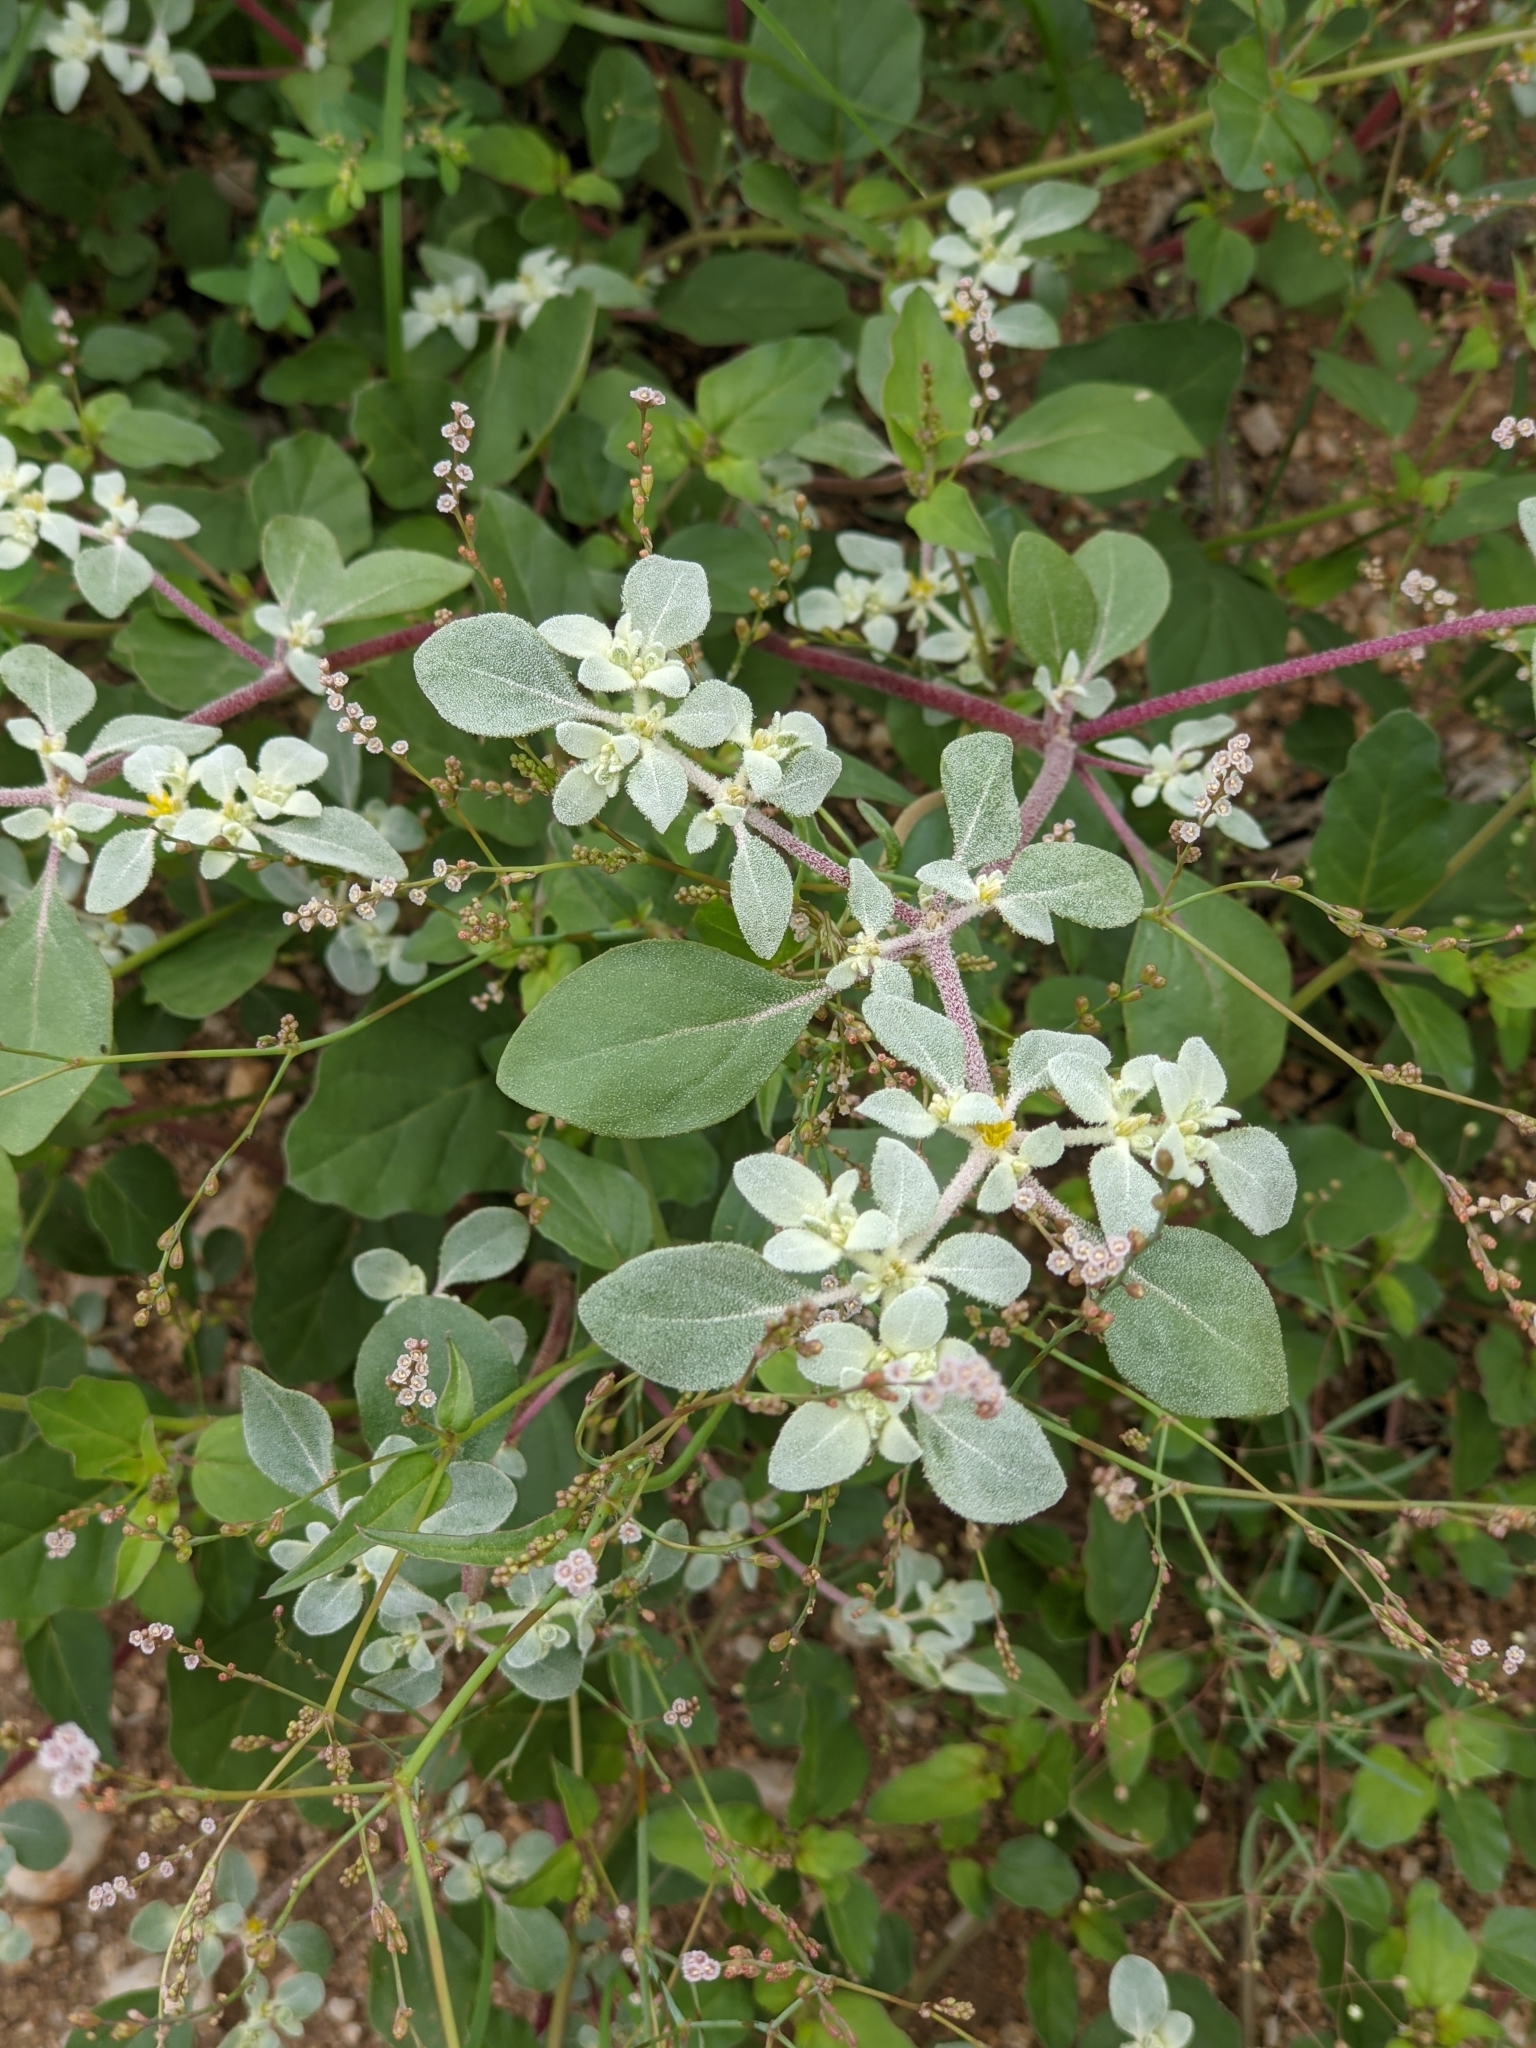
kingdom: Plantae
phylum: Tracheophyta
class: Magnoliopsida
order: Caryophyllales
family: Amaranthaceae
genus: Tidestromia
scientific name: Tidestromia lanuginosa
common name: Woolly tidestromia
